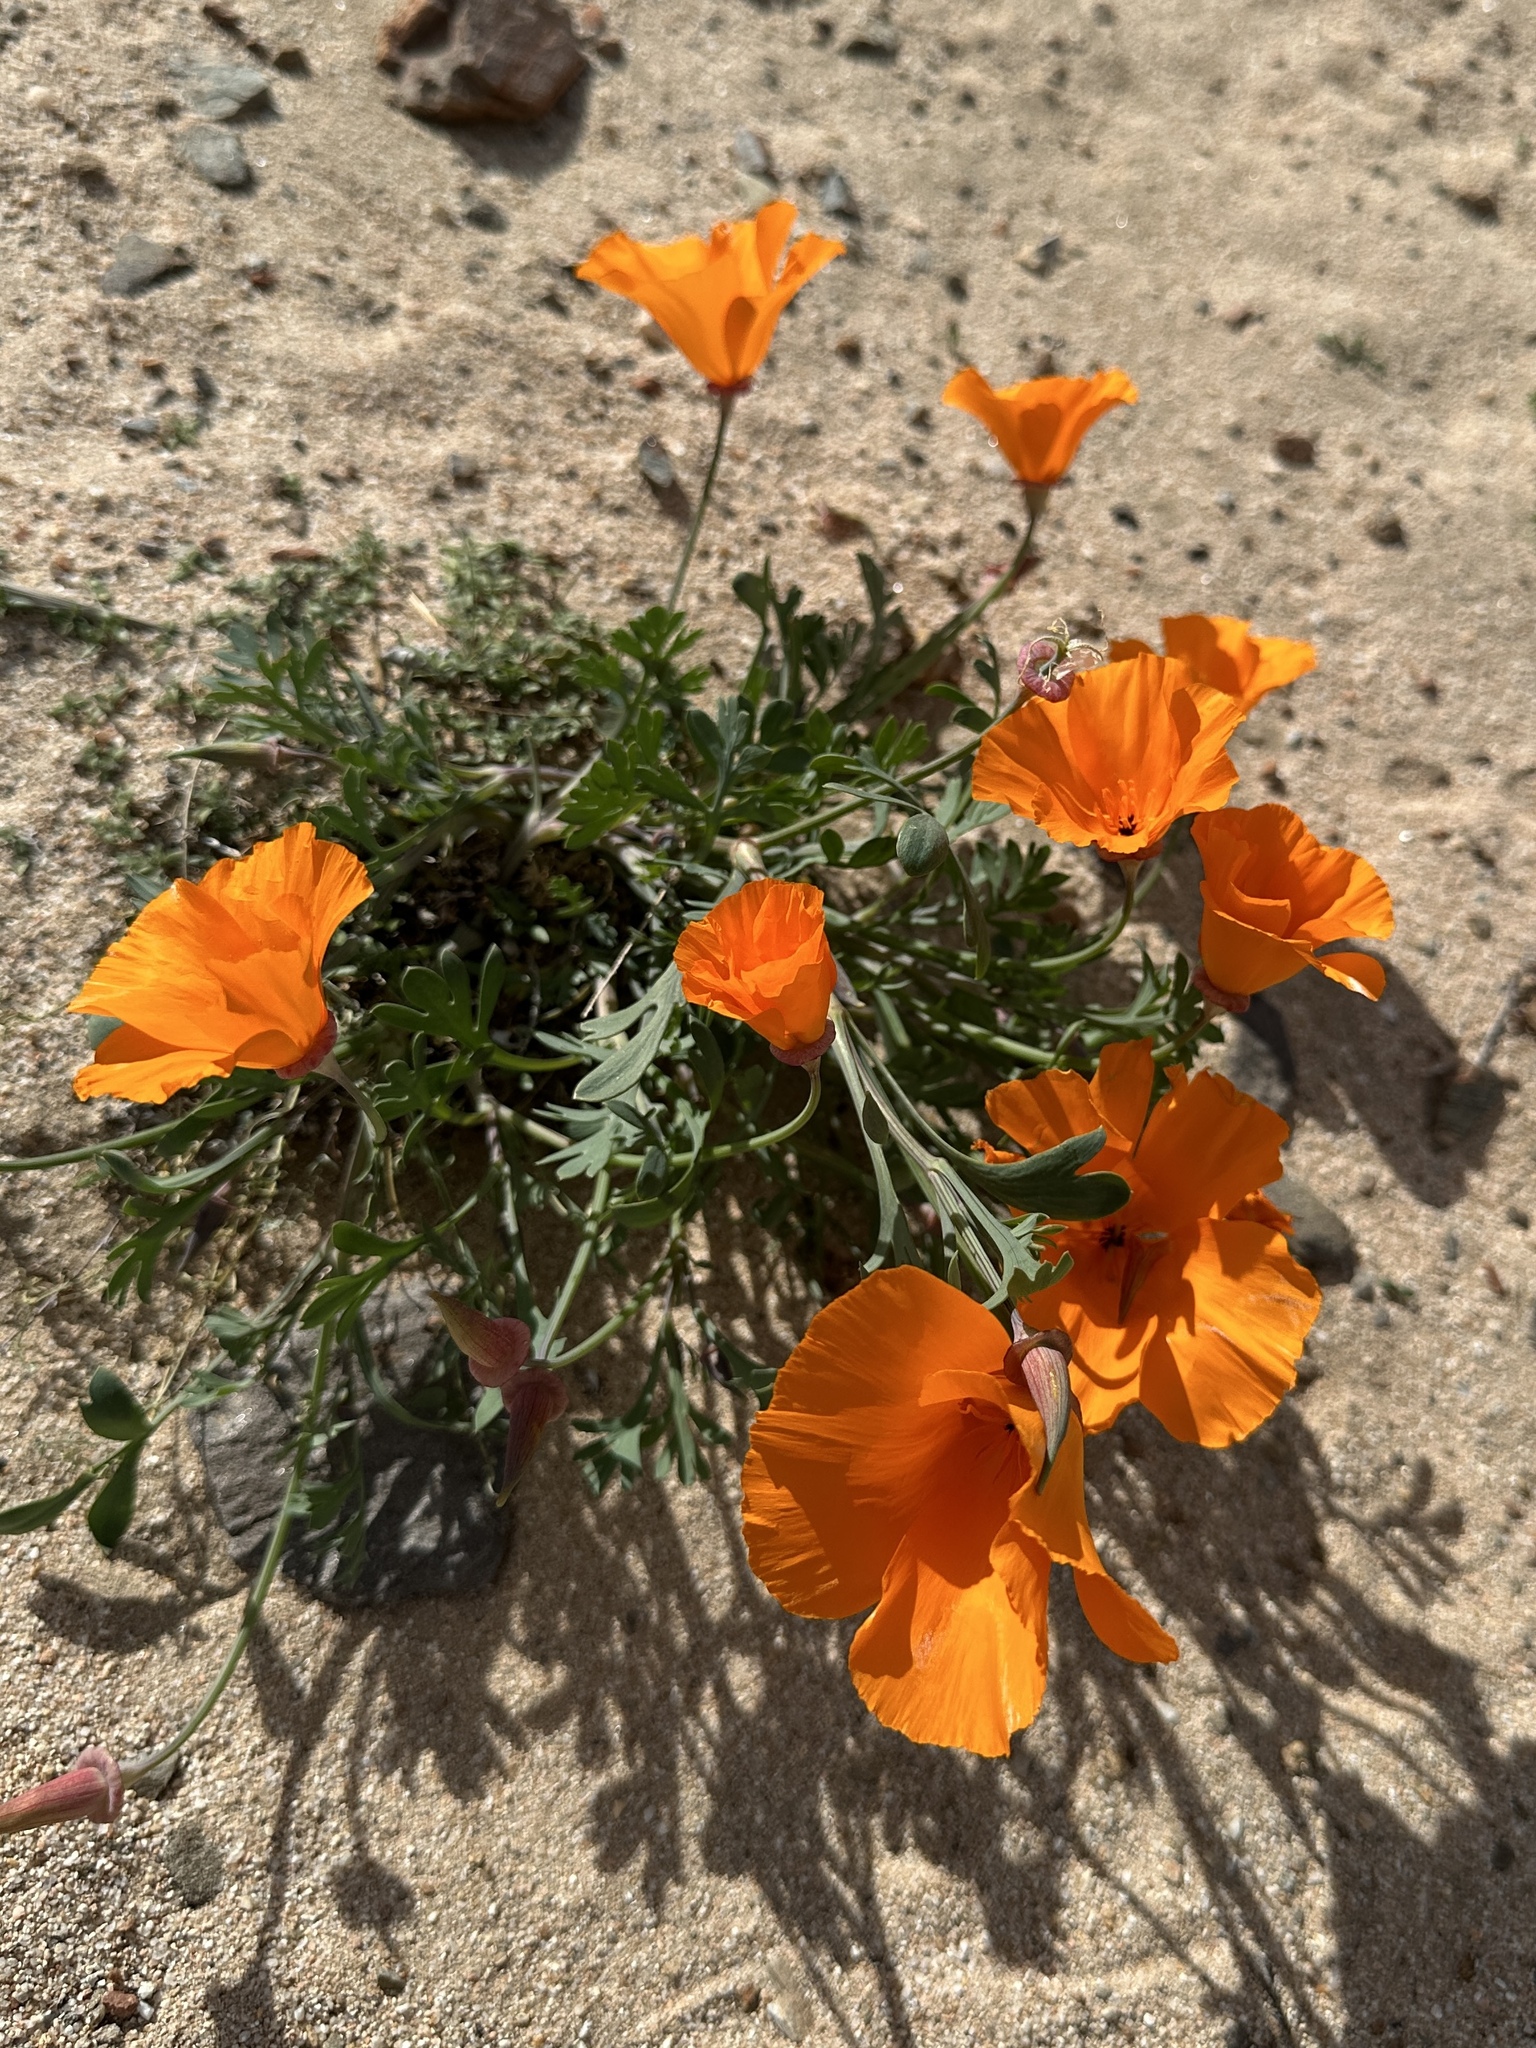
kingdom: Plantae
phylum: Tracheophyta
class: Magnoliopsida
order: Ranunculales
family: Papaveraceae
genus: Eschscholzia
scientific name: Eschscholzia californica
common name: California poppy
